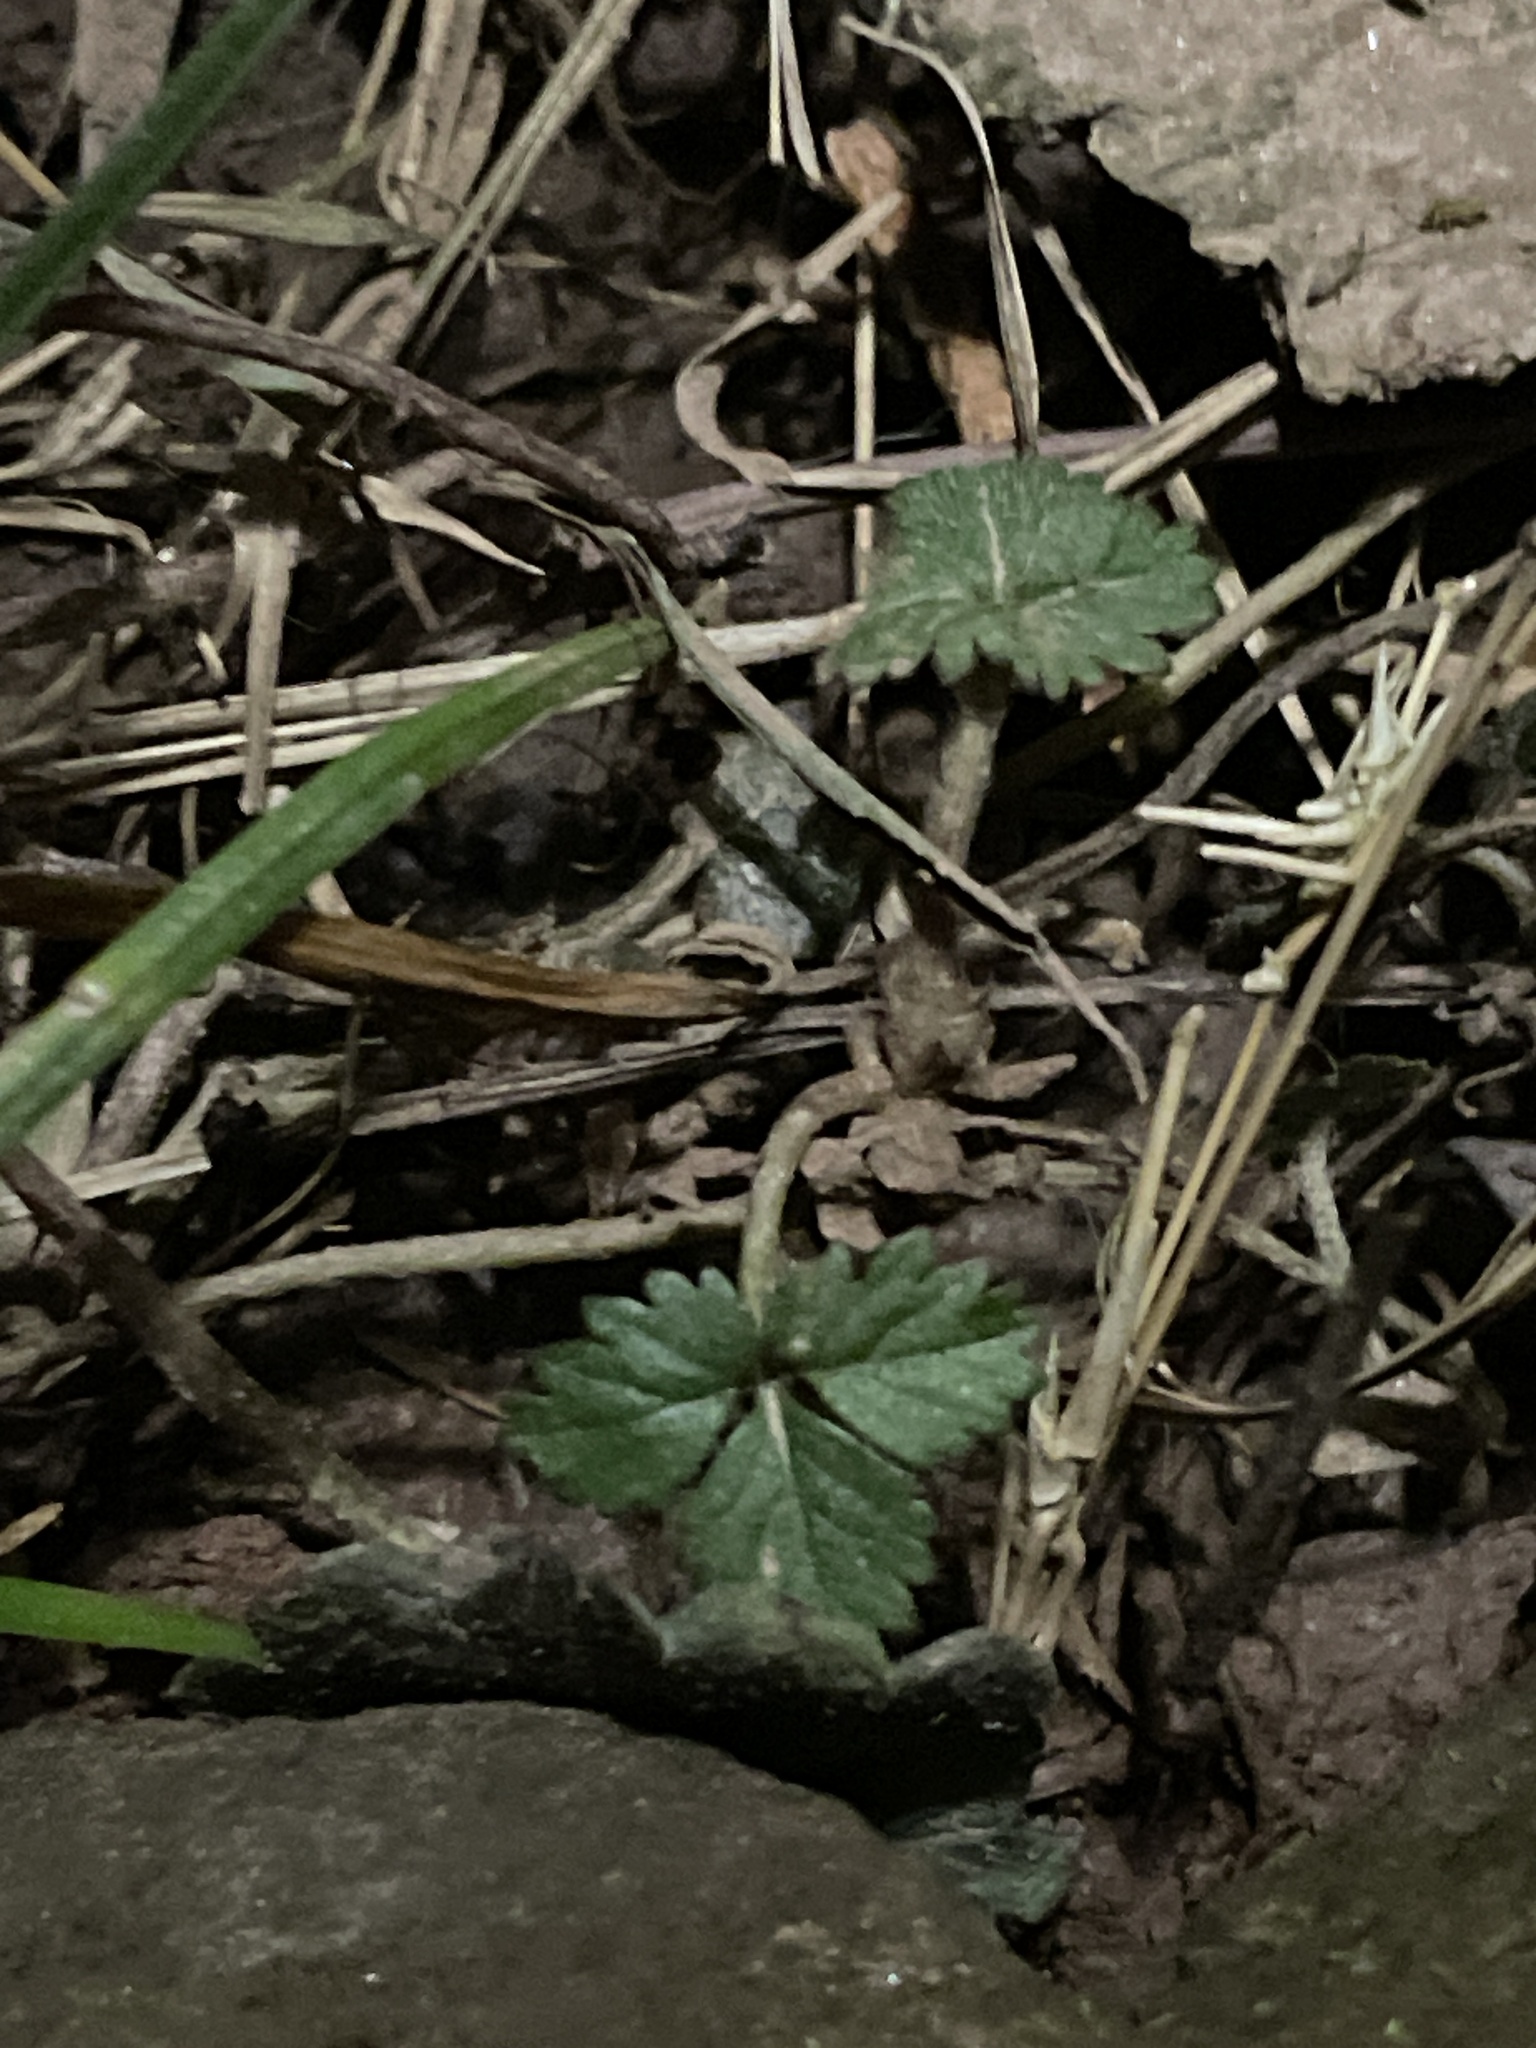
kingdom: Plantae
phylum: Tracheophyta
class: Magnoliopsida
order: Rosales
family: Rosaceae
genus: Potentilla
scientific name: Potentilla indica
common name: Yellow-flowered strawberry
